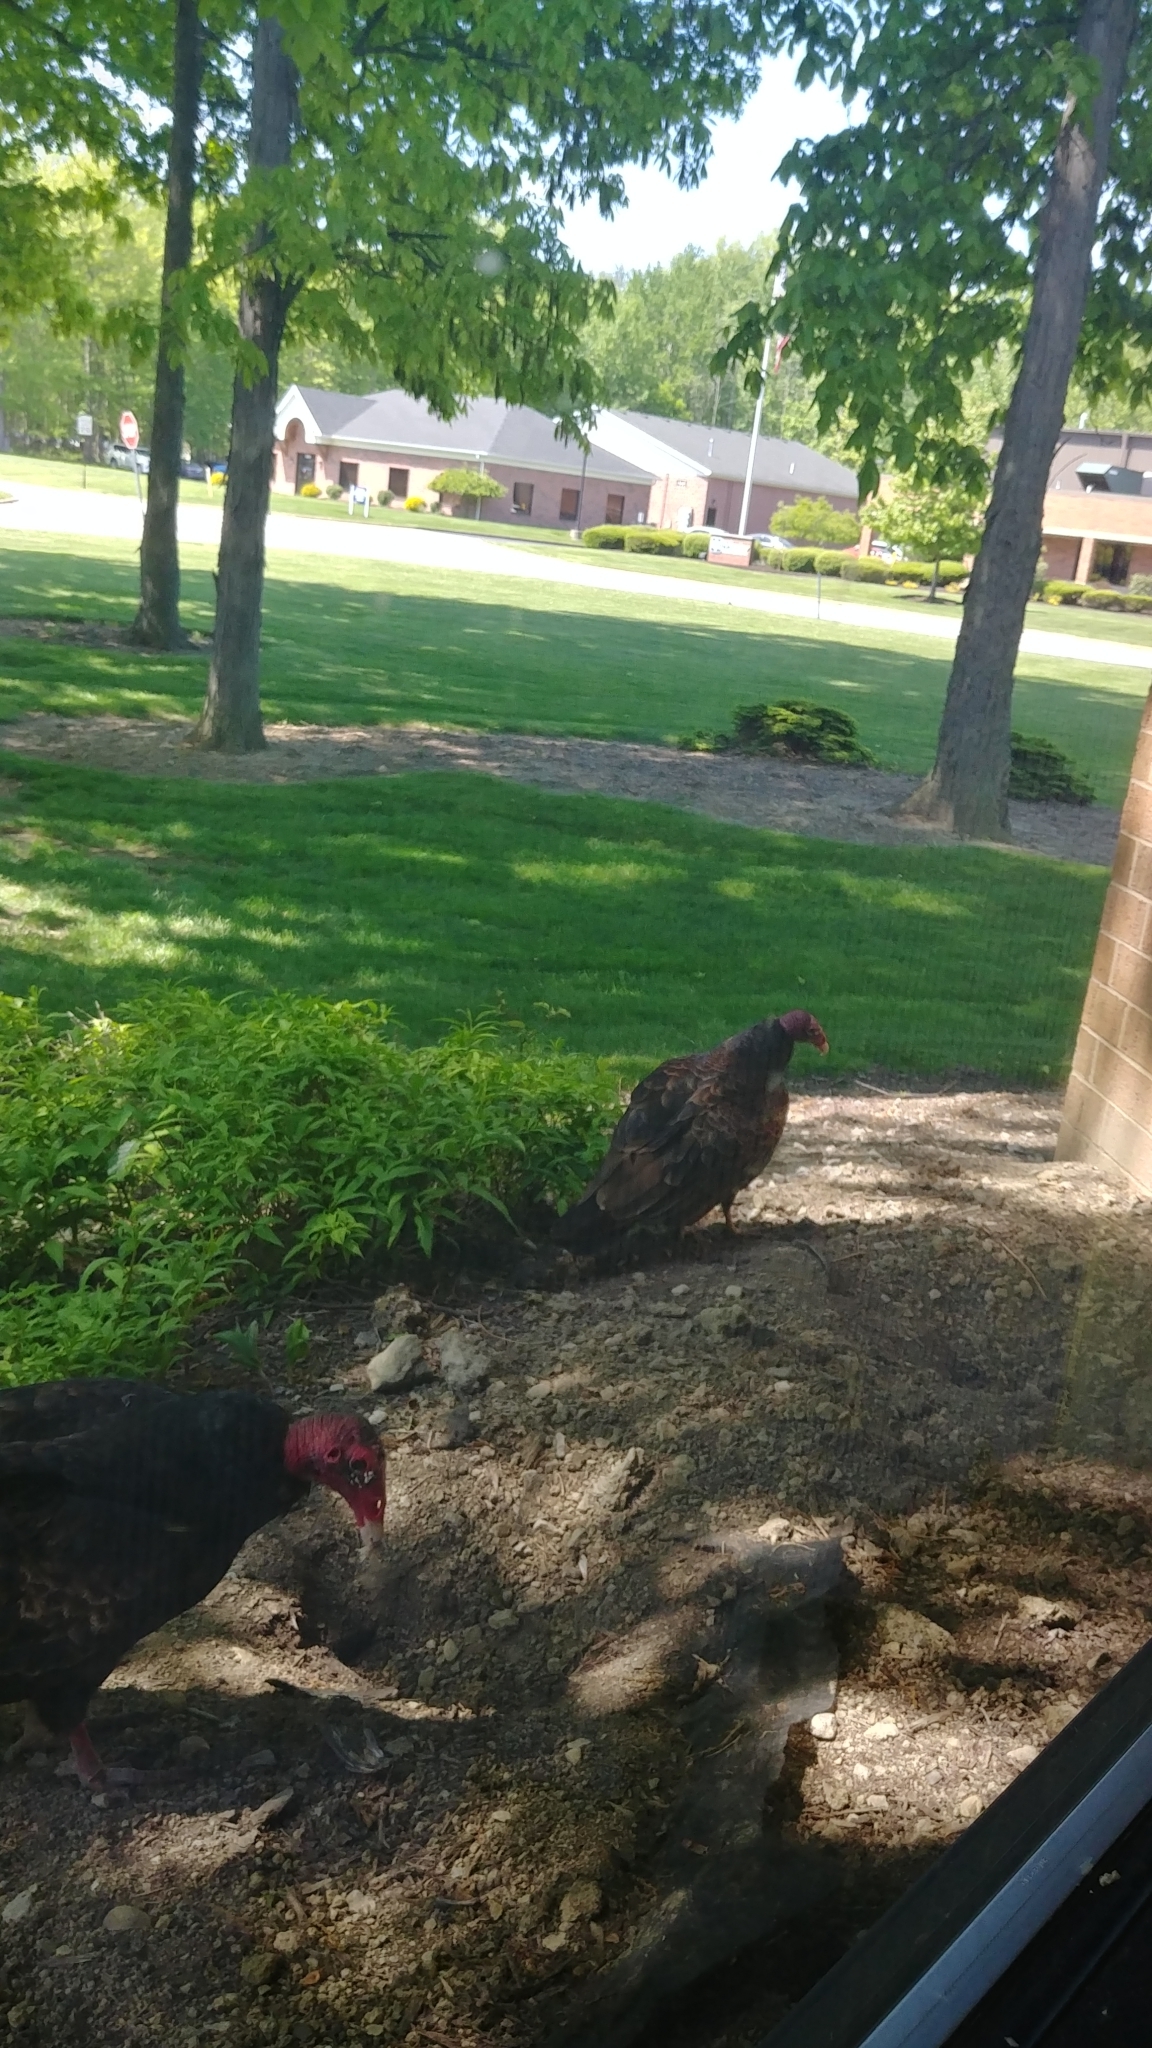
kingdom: Animalia
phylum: Chordata
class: Aves
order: Accipitriformes
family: Cathartidae
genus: Cathartes
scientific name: Cathartes aura
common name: Turkey vulture
